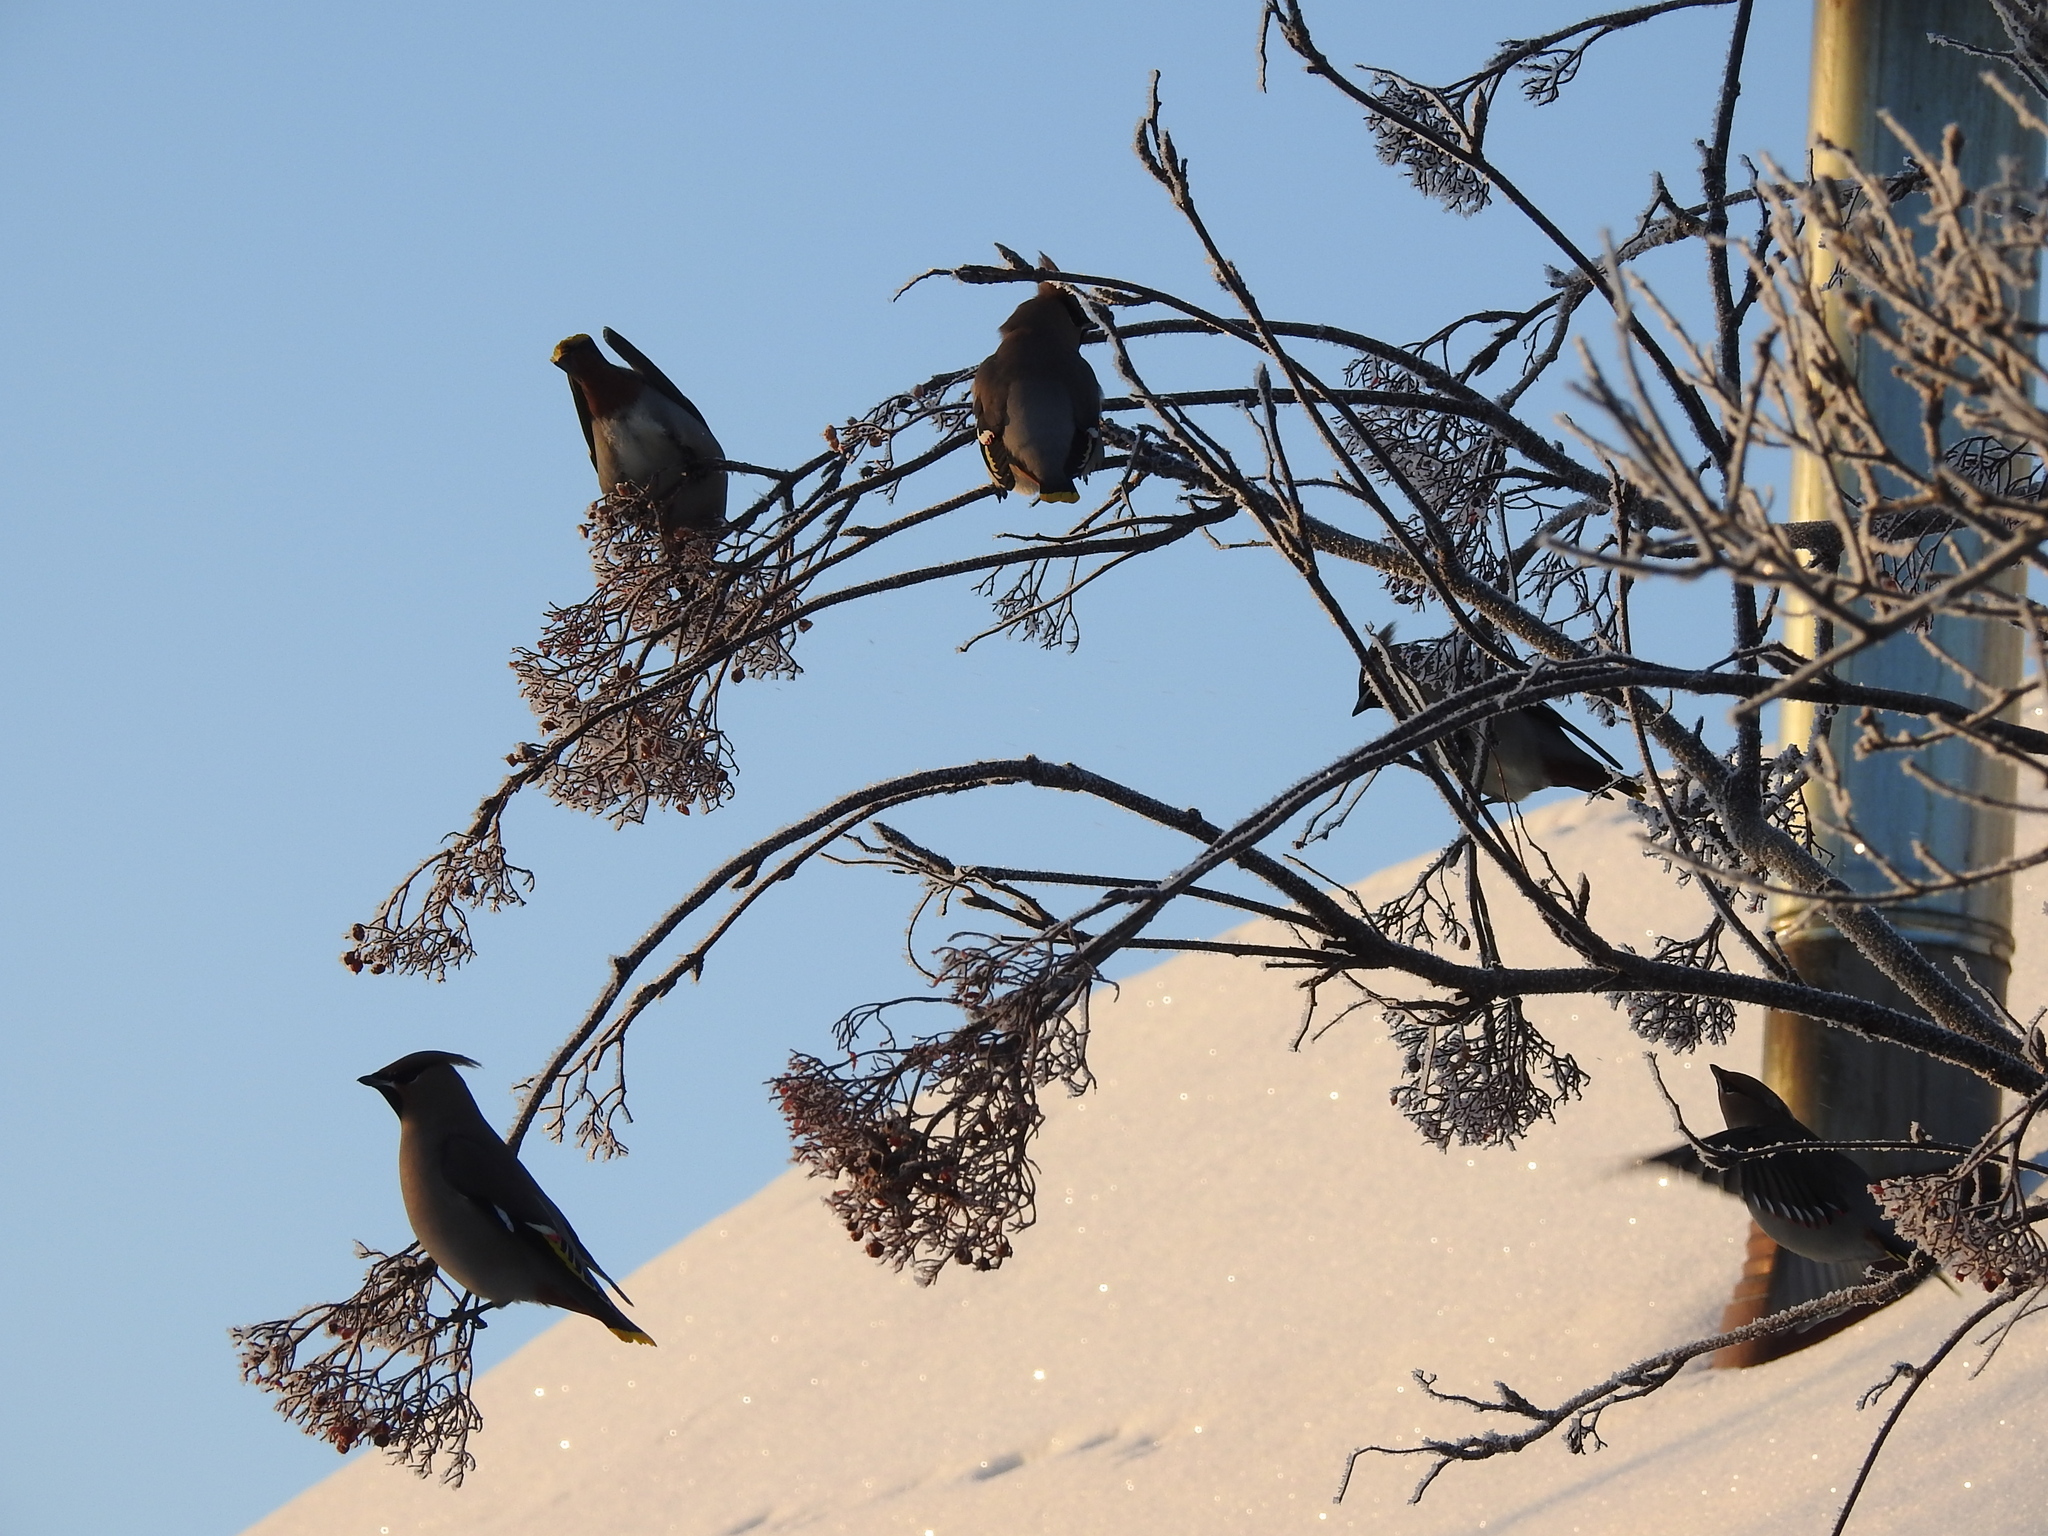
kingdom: Animalia
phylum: Chordata
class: Aves
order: Passeriformes
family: Bombycillidae
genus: Bombycilla
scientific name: Bombycilla garrulus
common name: Bohemian waxwing
